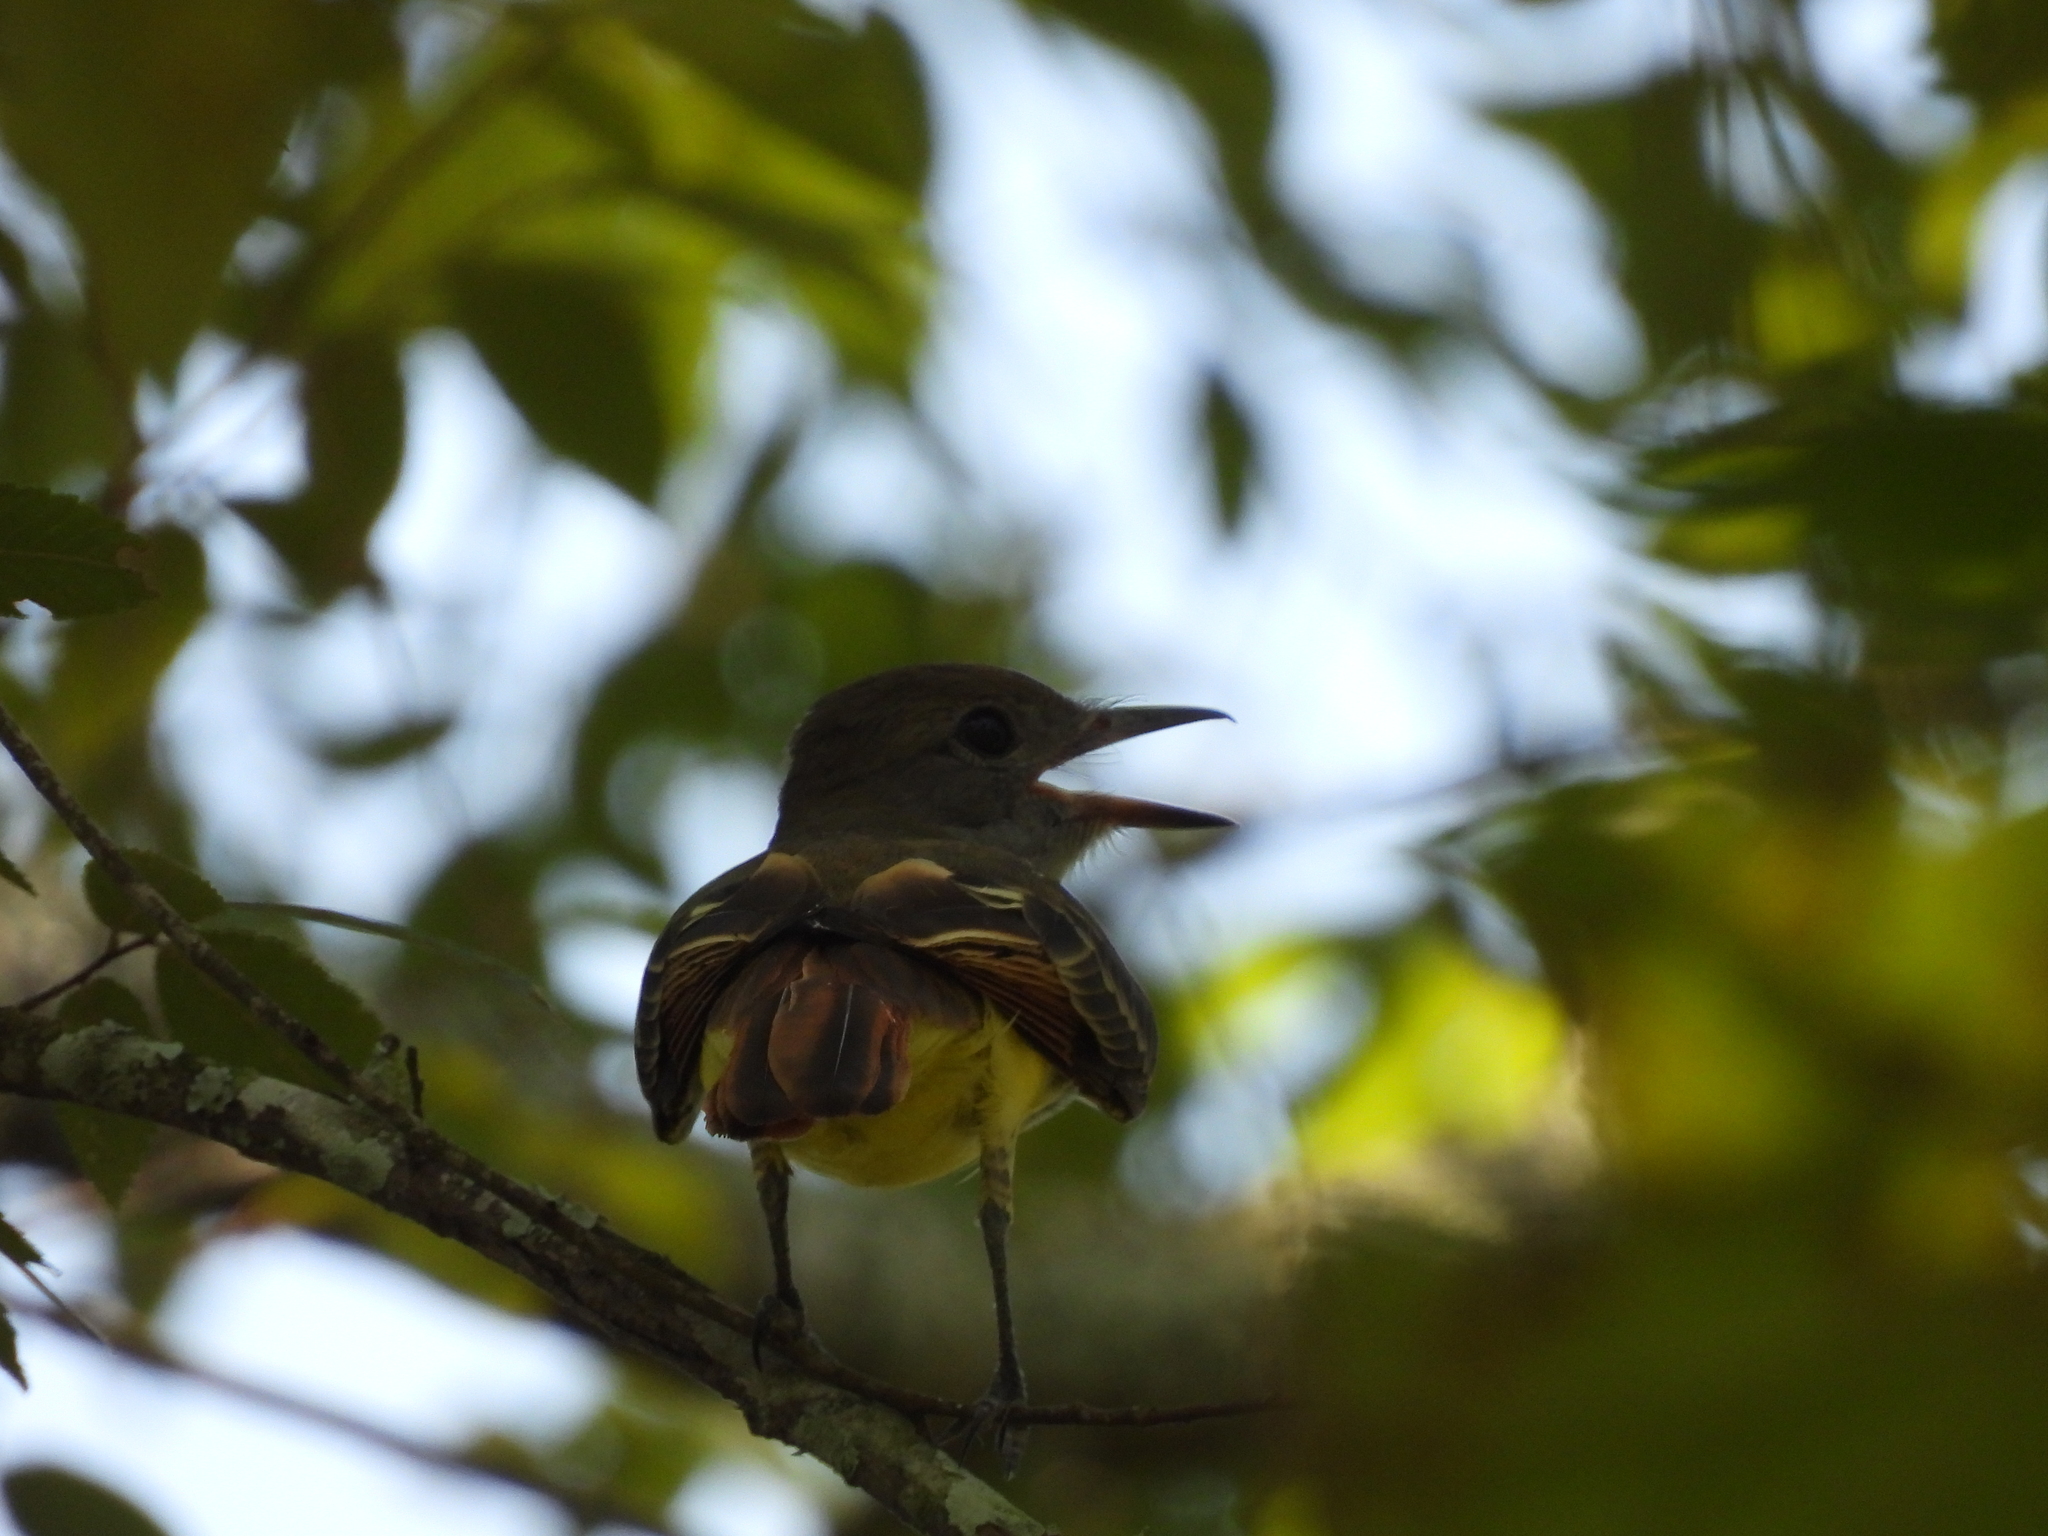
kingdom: Animalia
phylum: Chordata
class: Aves
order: Passeriformes
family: Tyrannidae
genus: Myiarchus
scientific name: Myiarchus crinitus
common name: Great crested flycatcher
